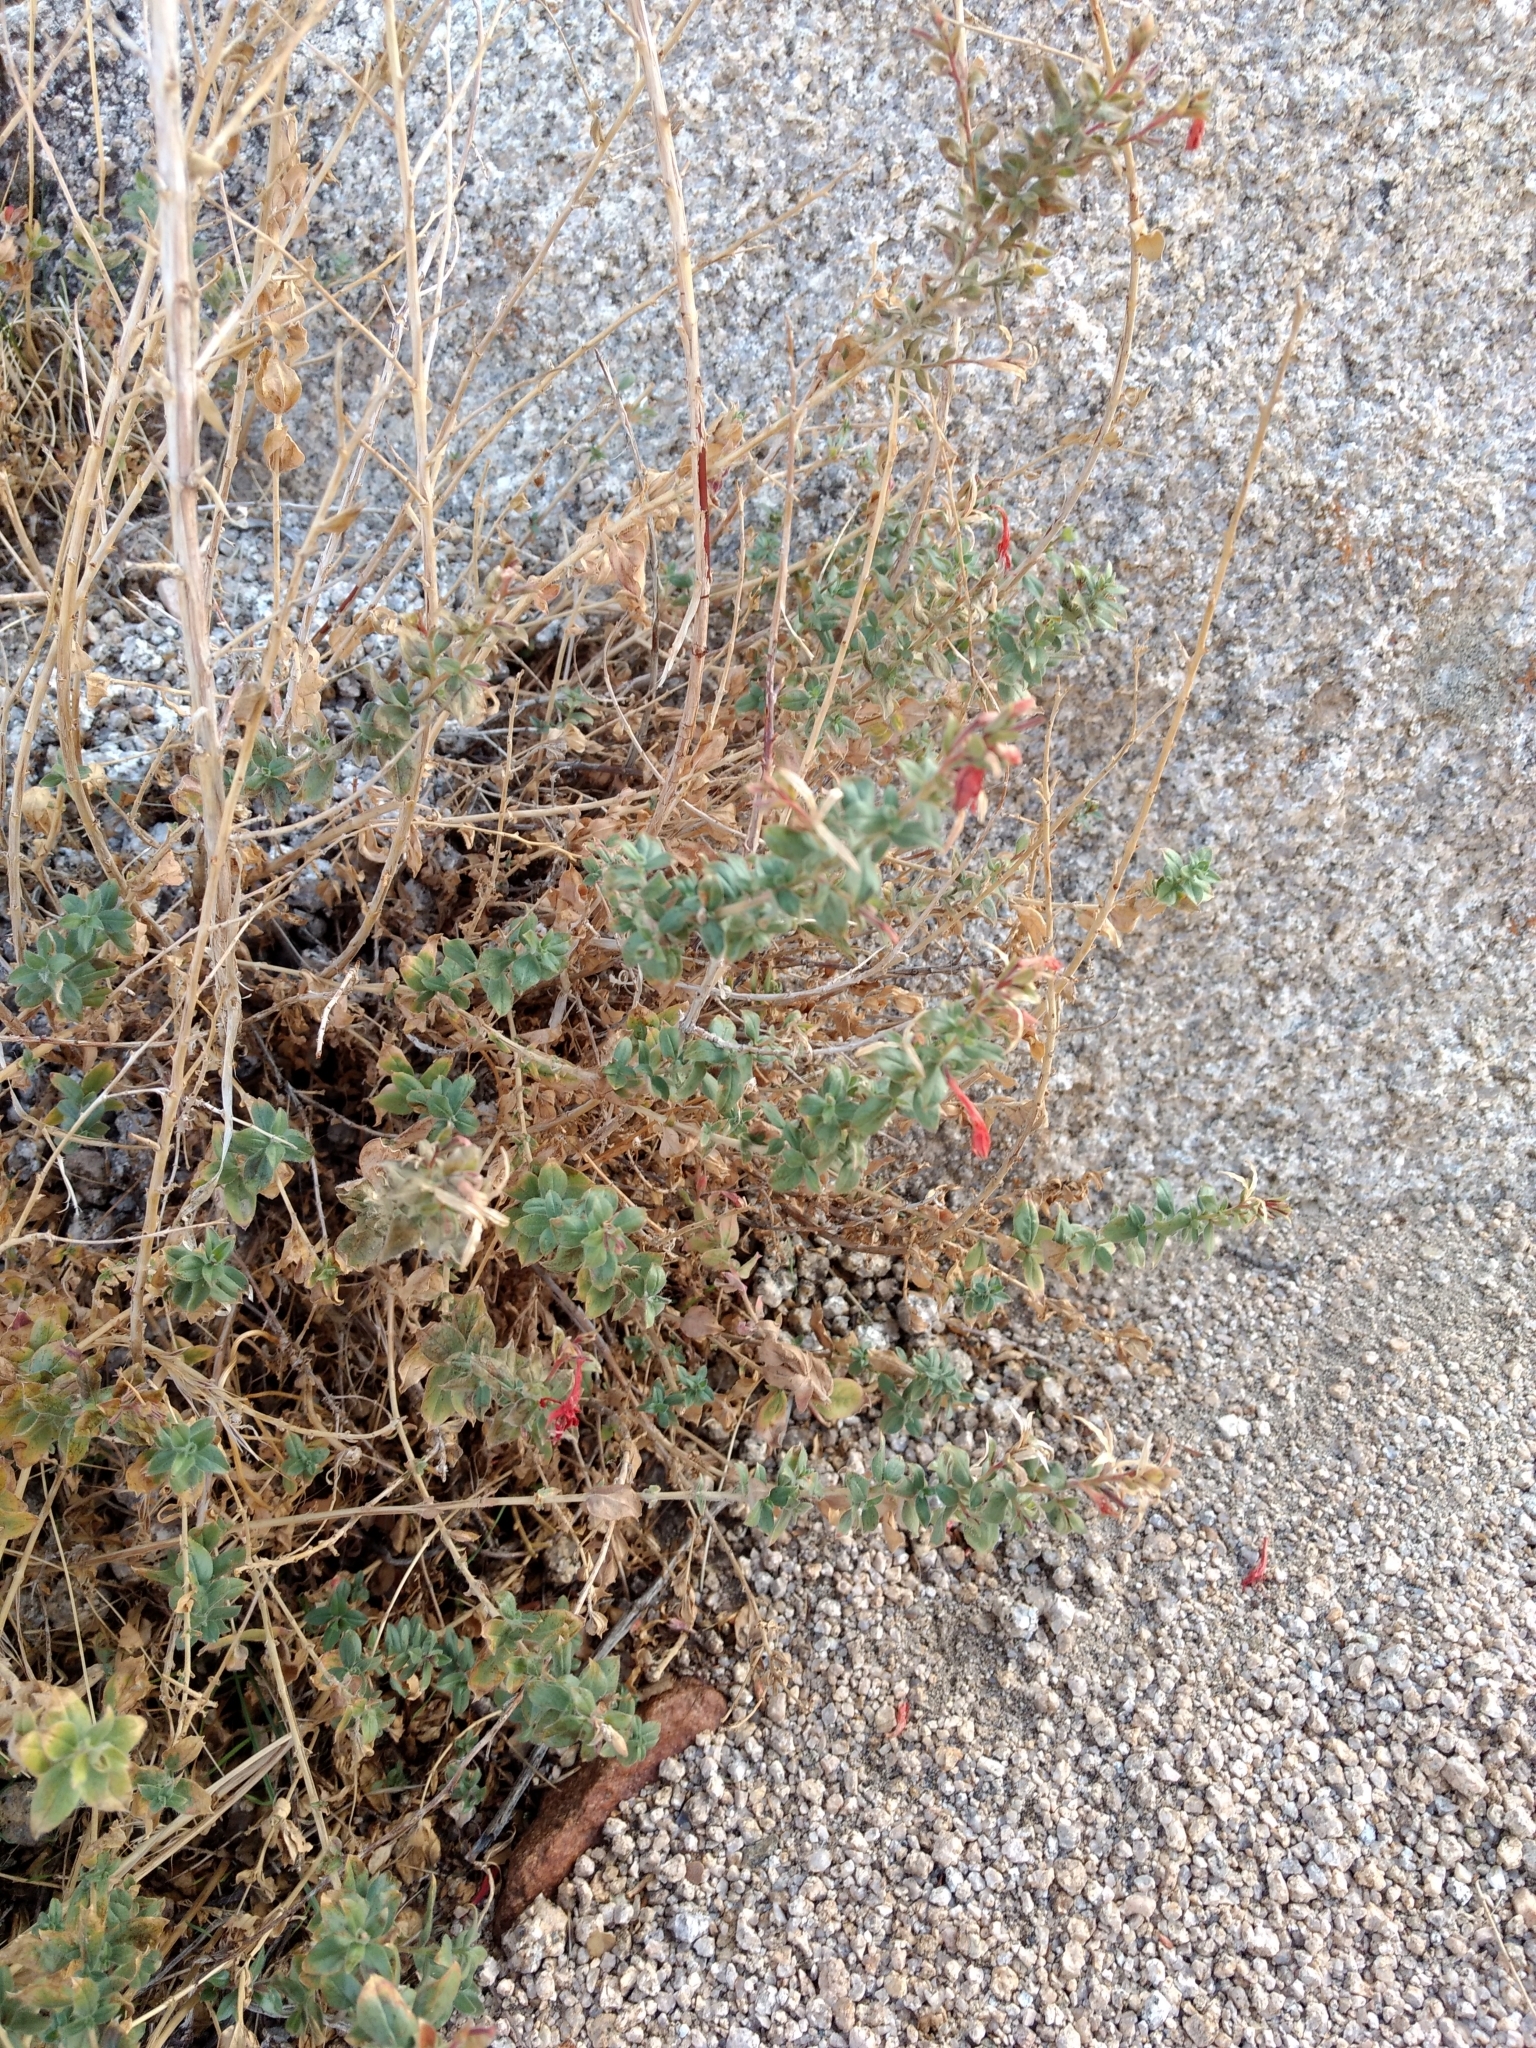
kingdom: Plantae
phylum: Tracheophyta
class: Magnoliopsida
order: Myrtales
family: Onagraceae
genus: Epilobium
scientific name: Epilobium canum
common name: California-fuchsia
